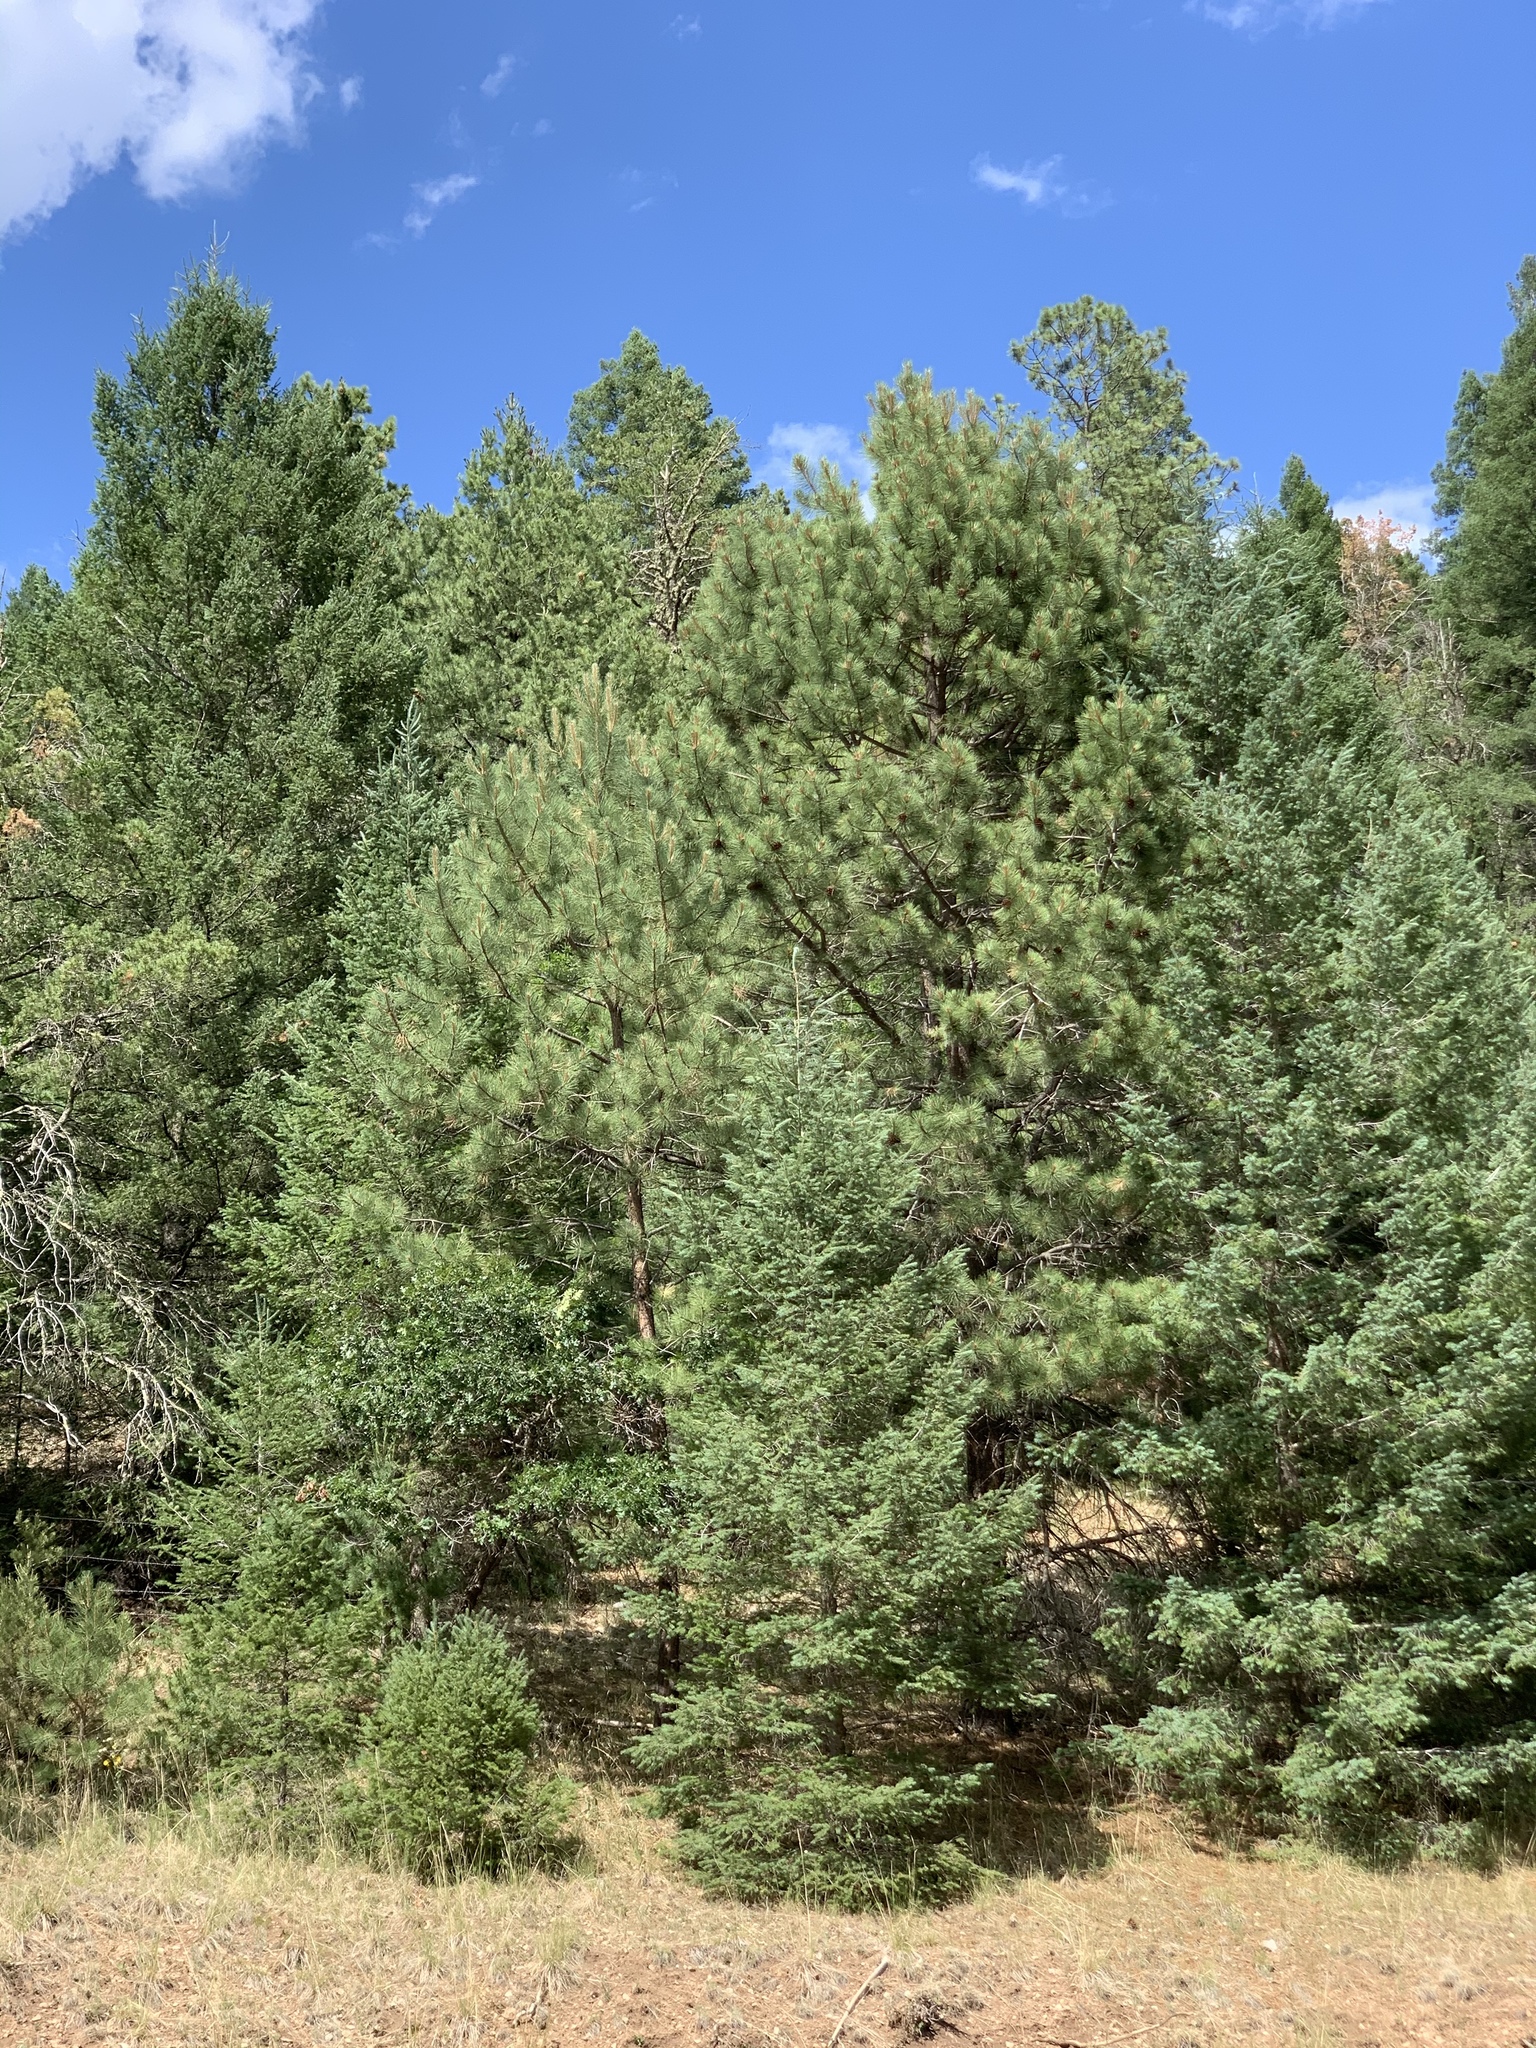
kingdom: Plantae
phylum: Tracheophyta
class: Pinopsida
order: Pinales
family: Pinaceae
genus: Pinus
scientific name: Pinus ponderosa
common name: Western yellow-pine
